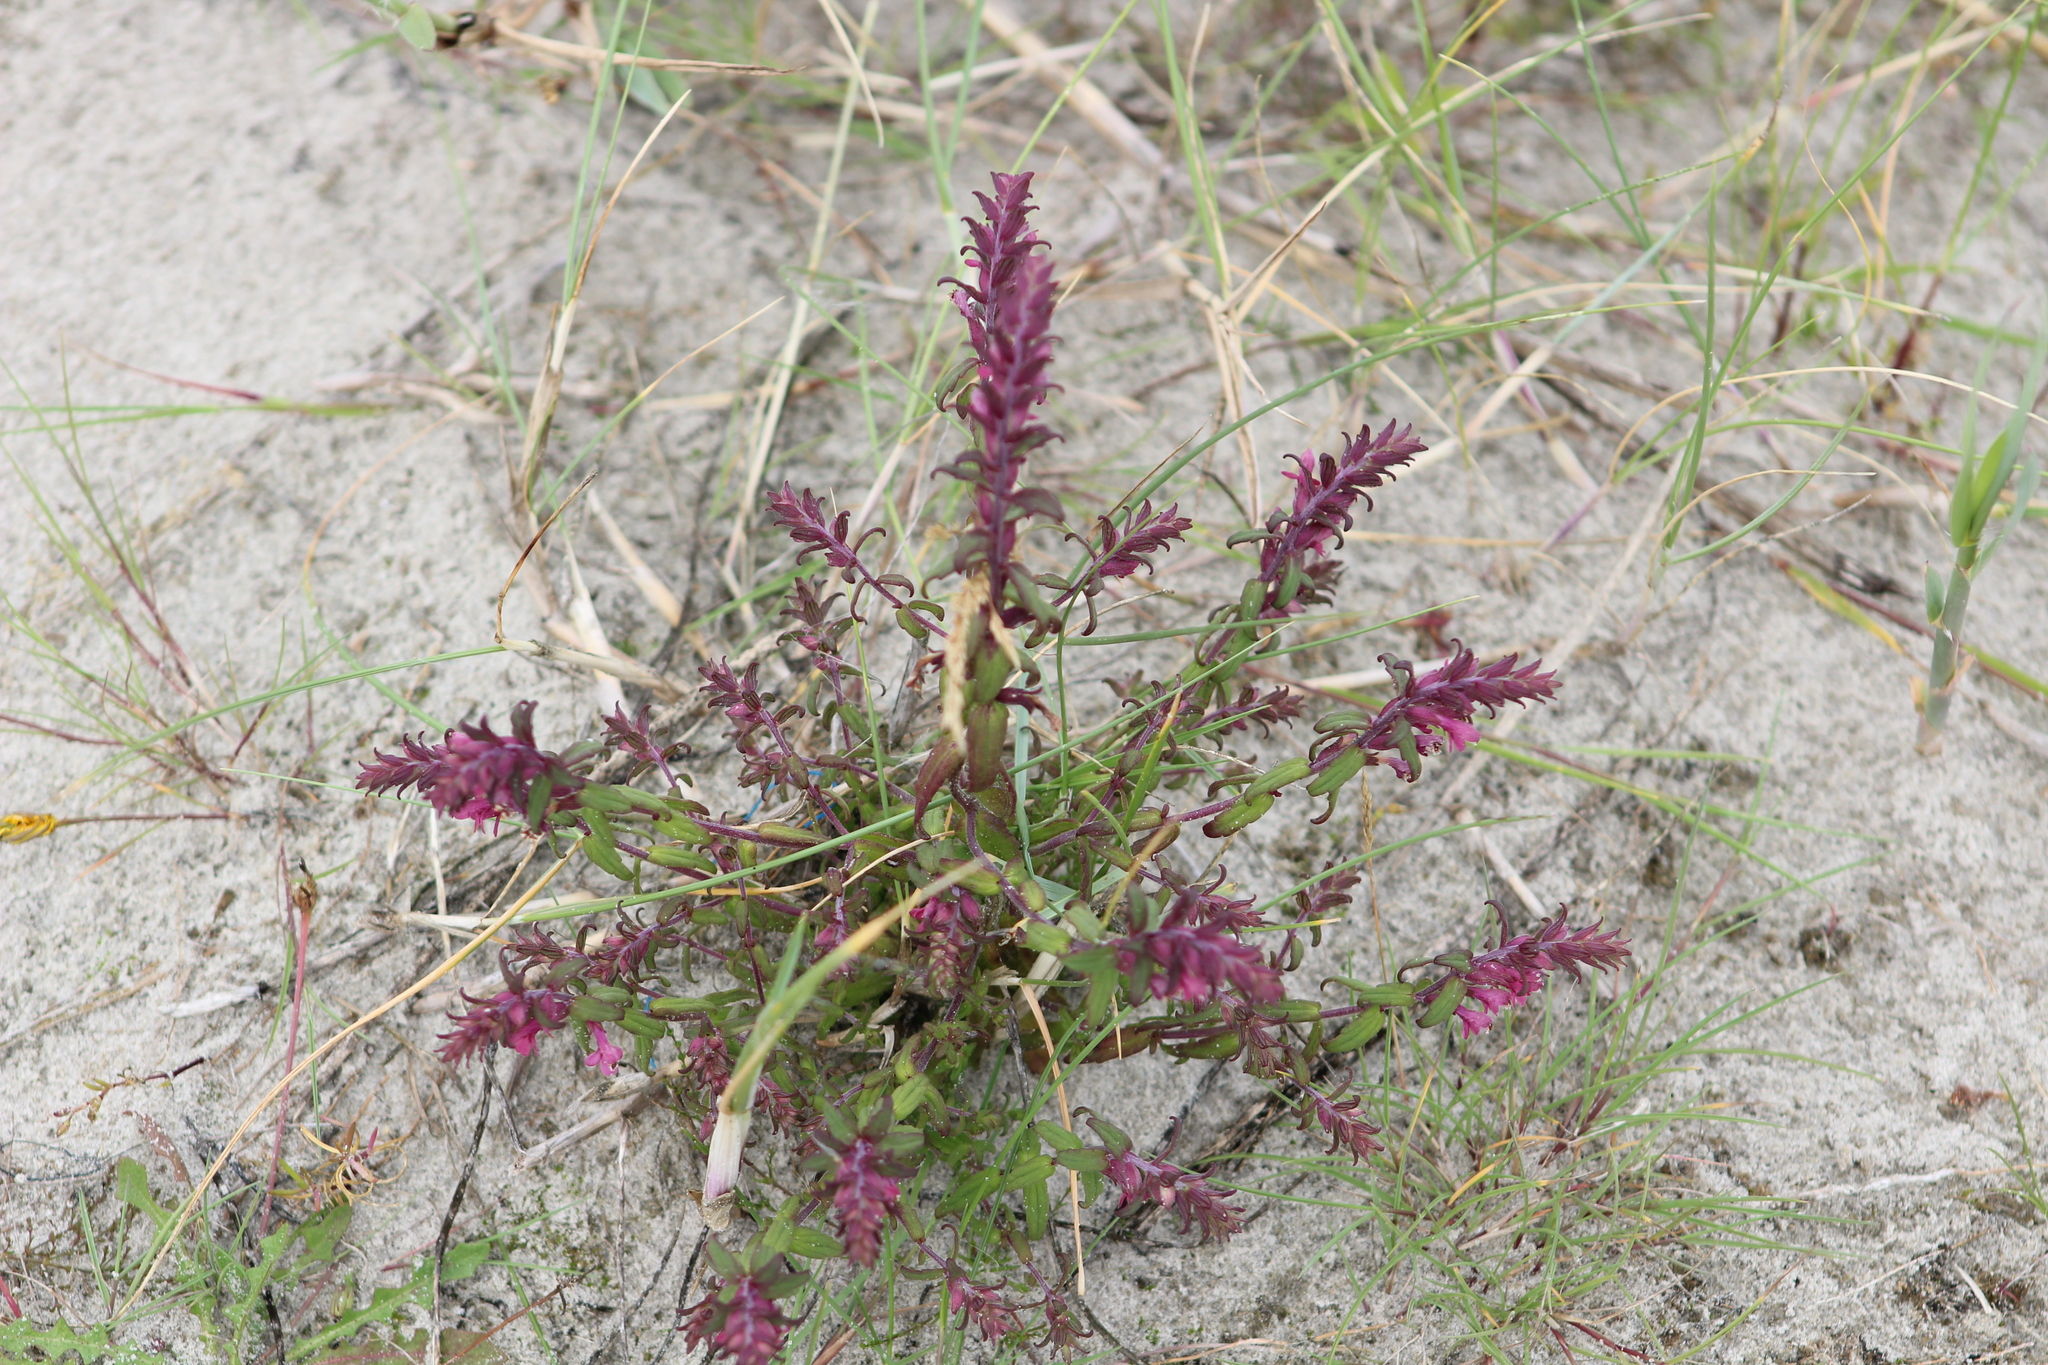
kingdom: Plantae
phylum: Tracheophyta
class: Magnoliopsida
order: Lamiales
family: Orobanchaceae
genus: Odontites
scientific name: Odontites vernus
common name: Red bartsia
